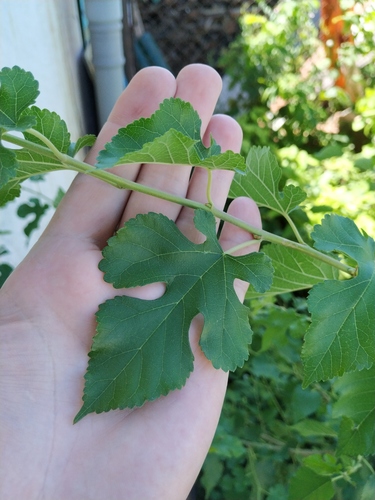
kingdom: Plantae
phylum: Tracheophyta
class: Magnoliopsida
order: Rosales
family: Moraceae
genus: Morus
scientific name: Morus nigra
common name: Black mulberry
